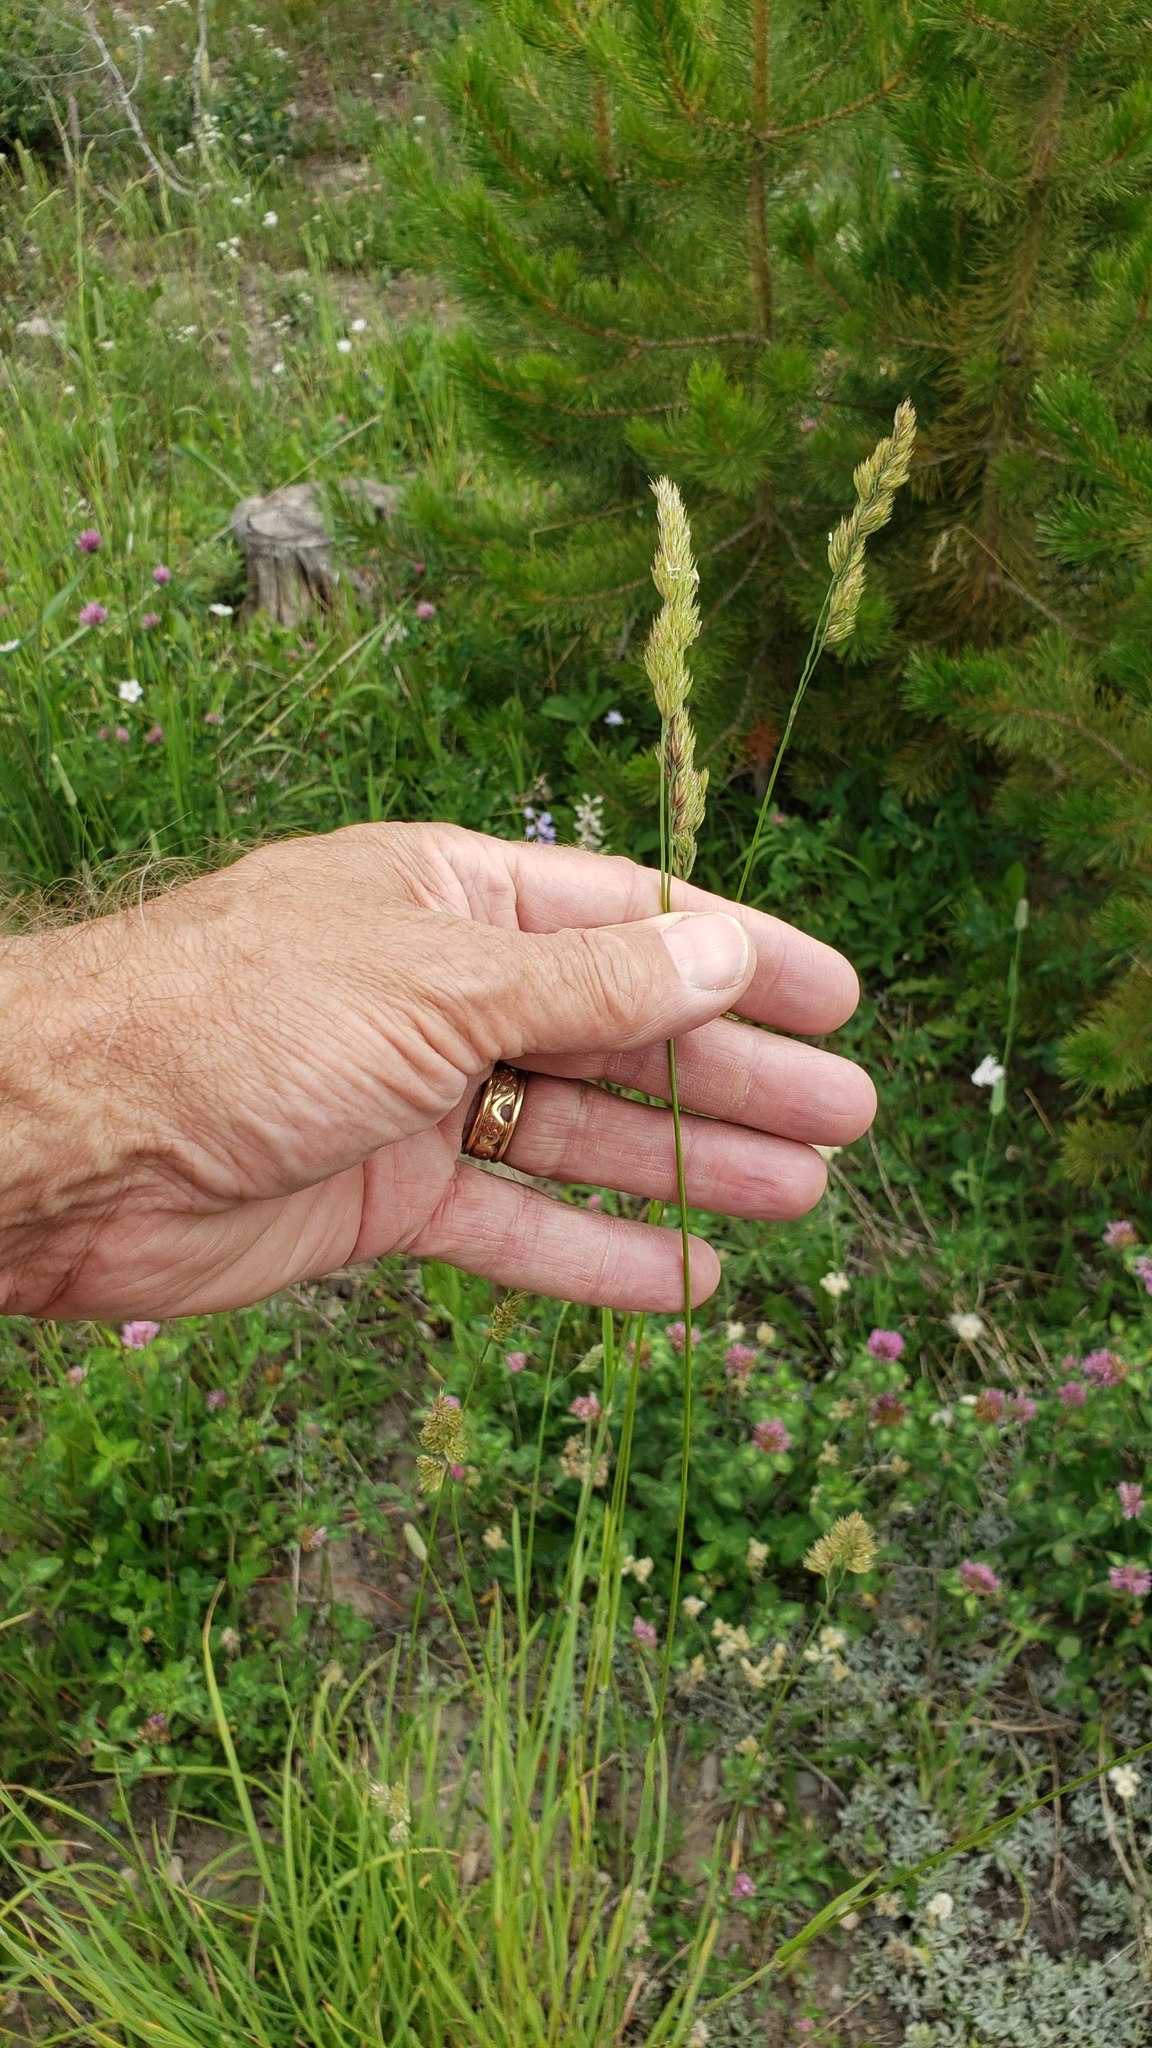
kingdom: Plantae
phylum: Tracheophyta
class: Liliopsida
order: Poales
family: Poaceae
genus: Dactylis
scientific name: Dactylis glomerata
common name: Orchardgrass
